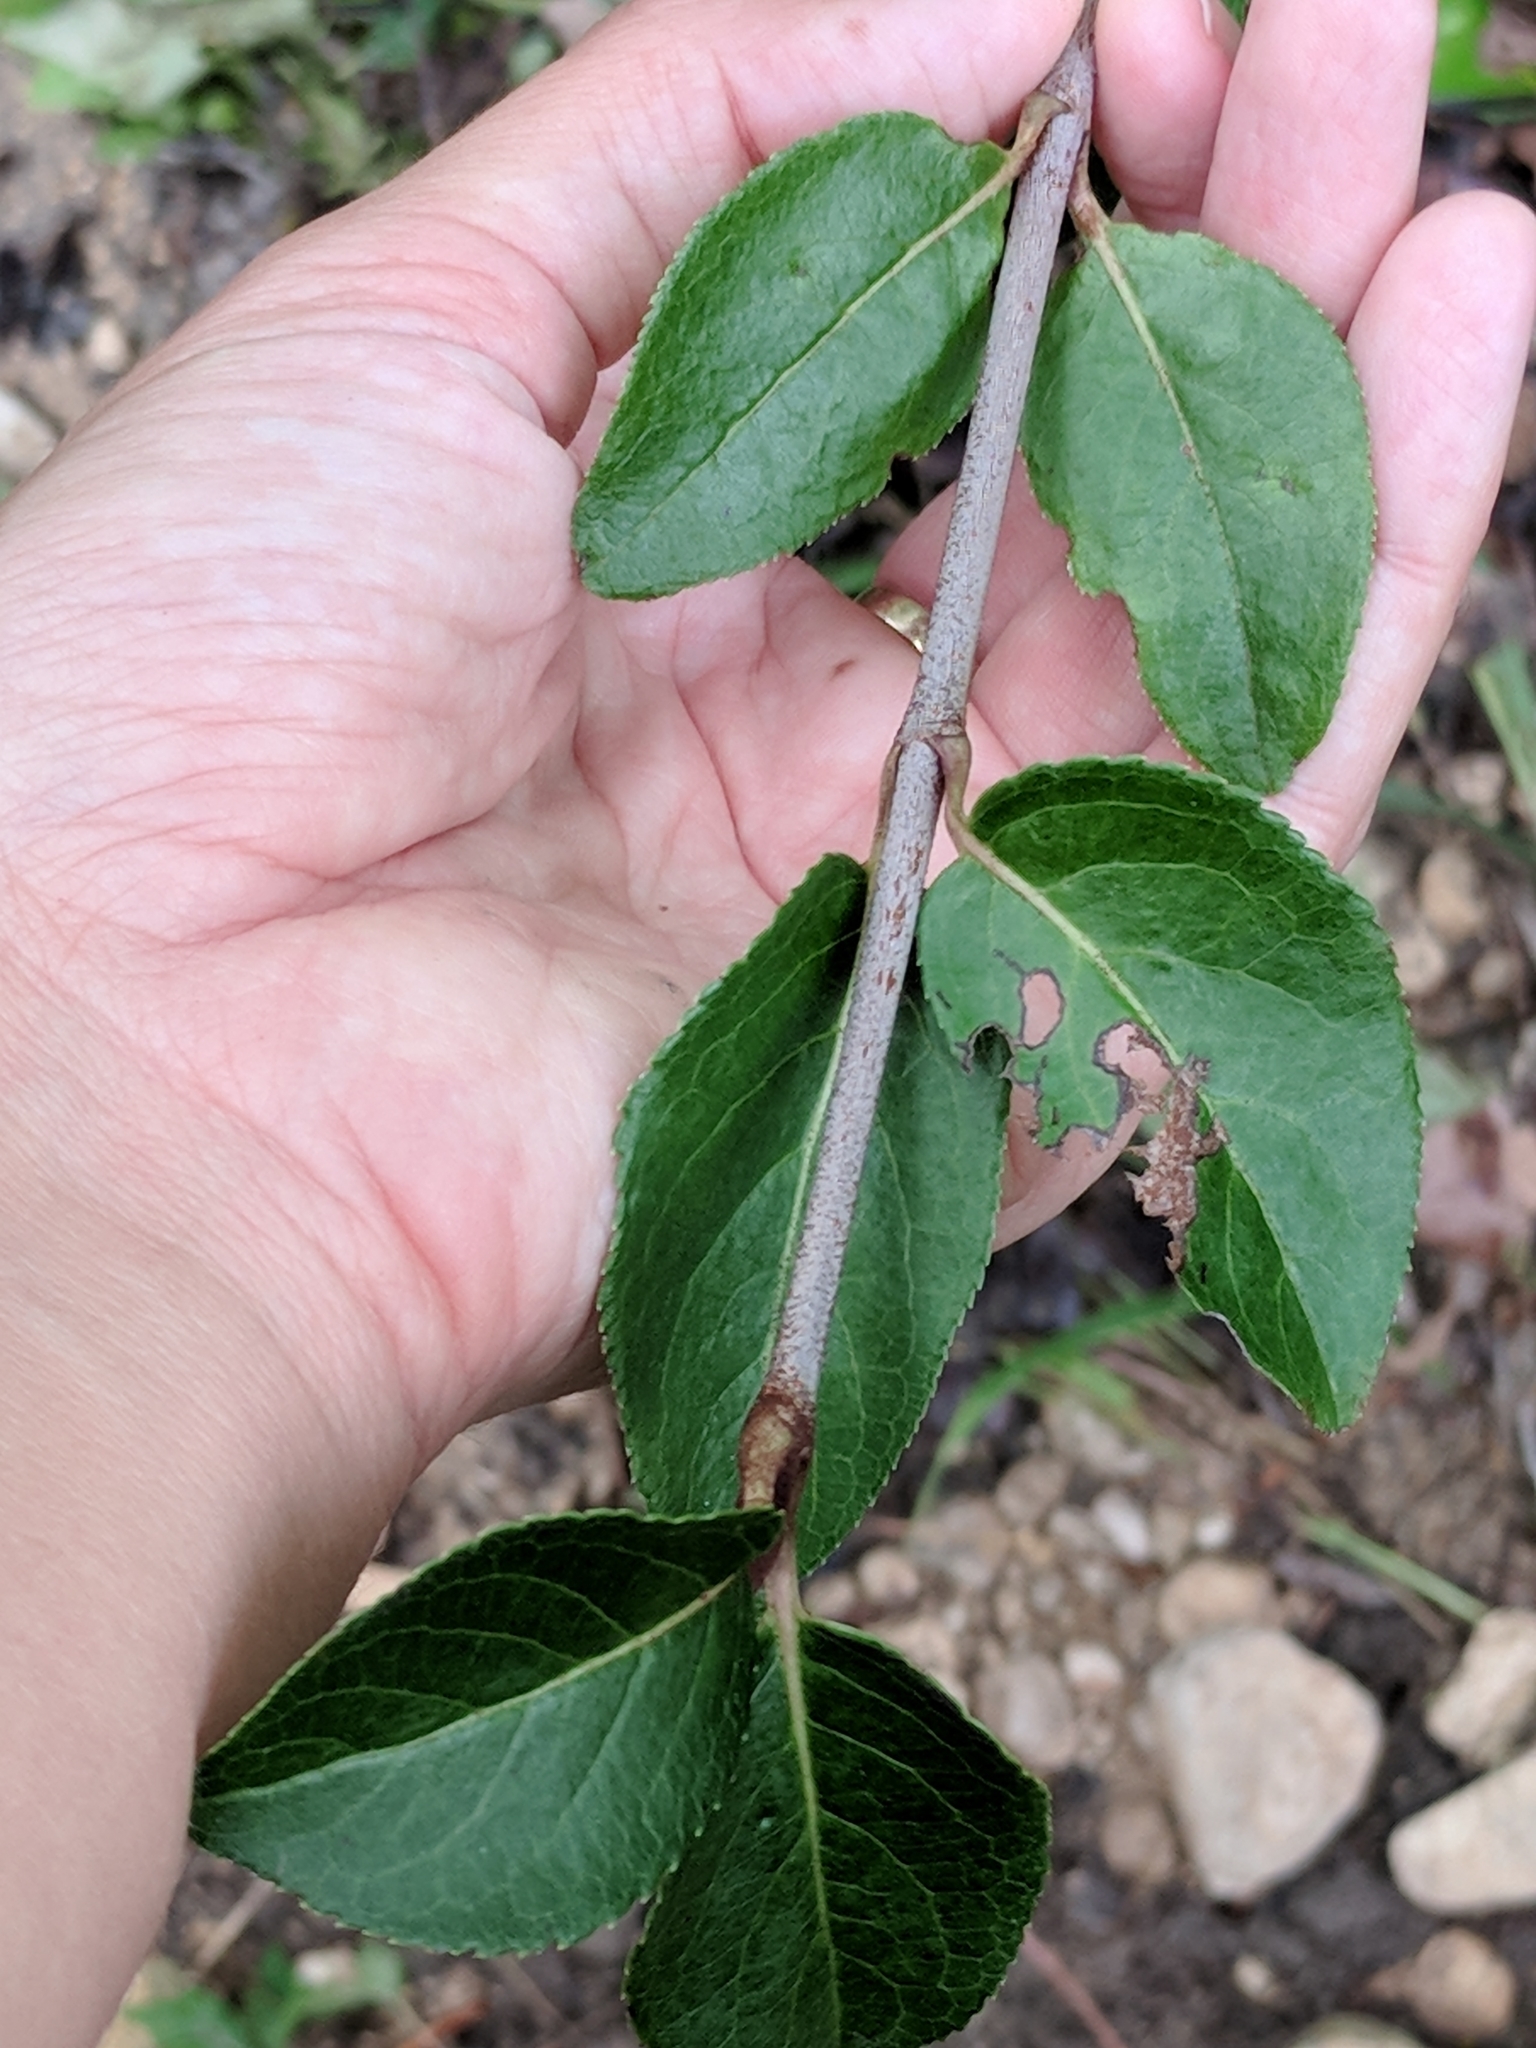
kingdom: Plantae
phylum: Tracheophyta
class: Magnoliopsida
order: Dipsacales
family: Viburnaceae
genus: Viburnum
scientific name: Viburnum rufidulum
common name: Blue haw
